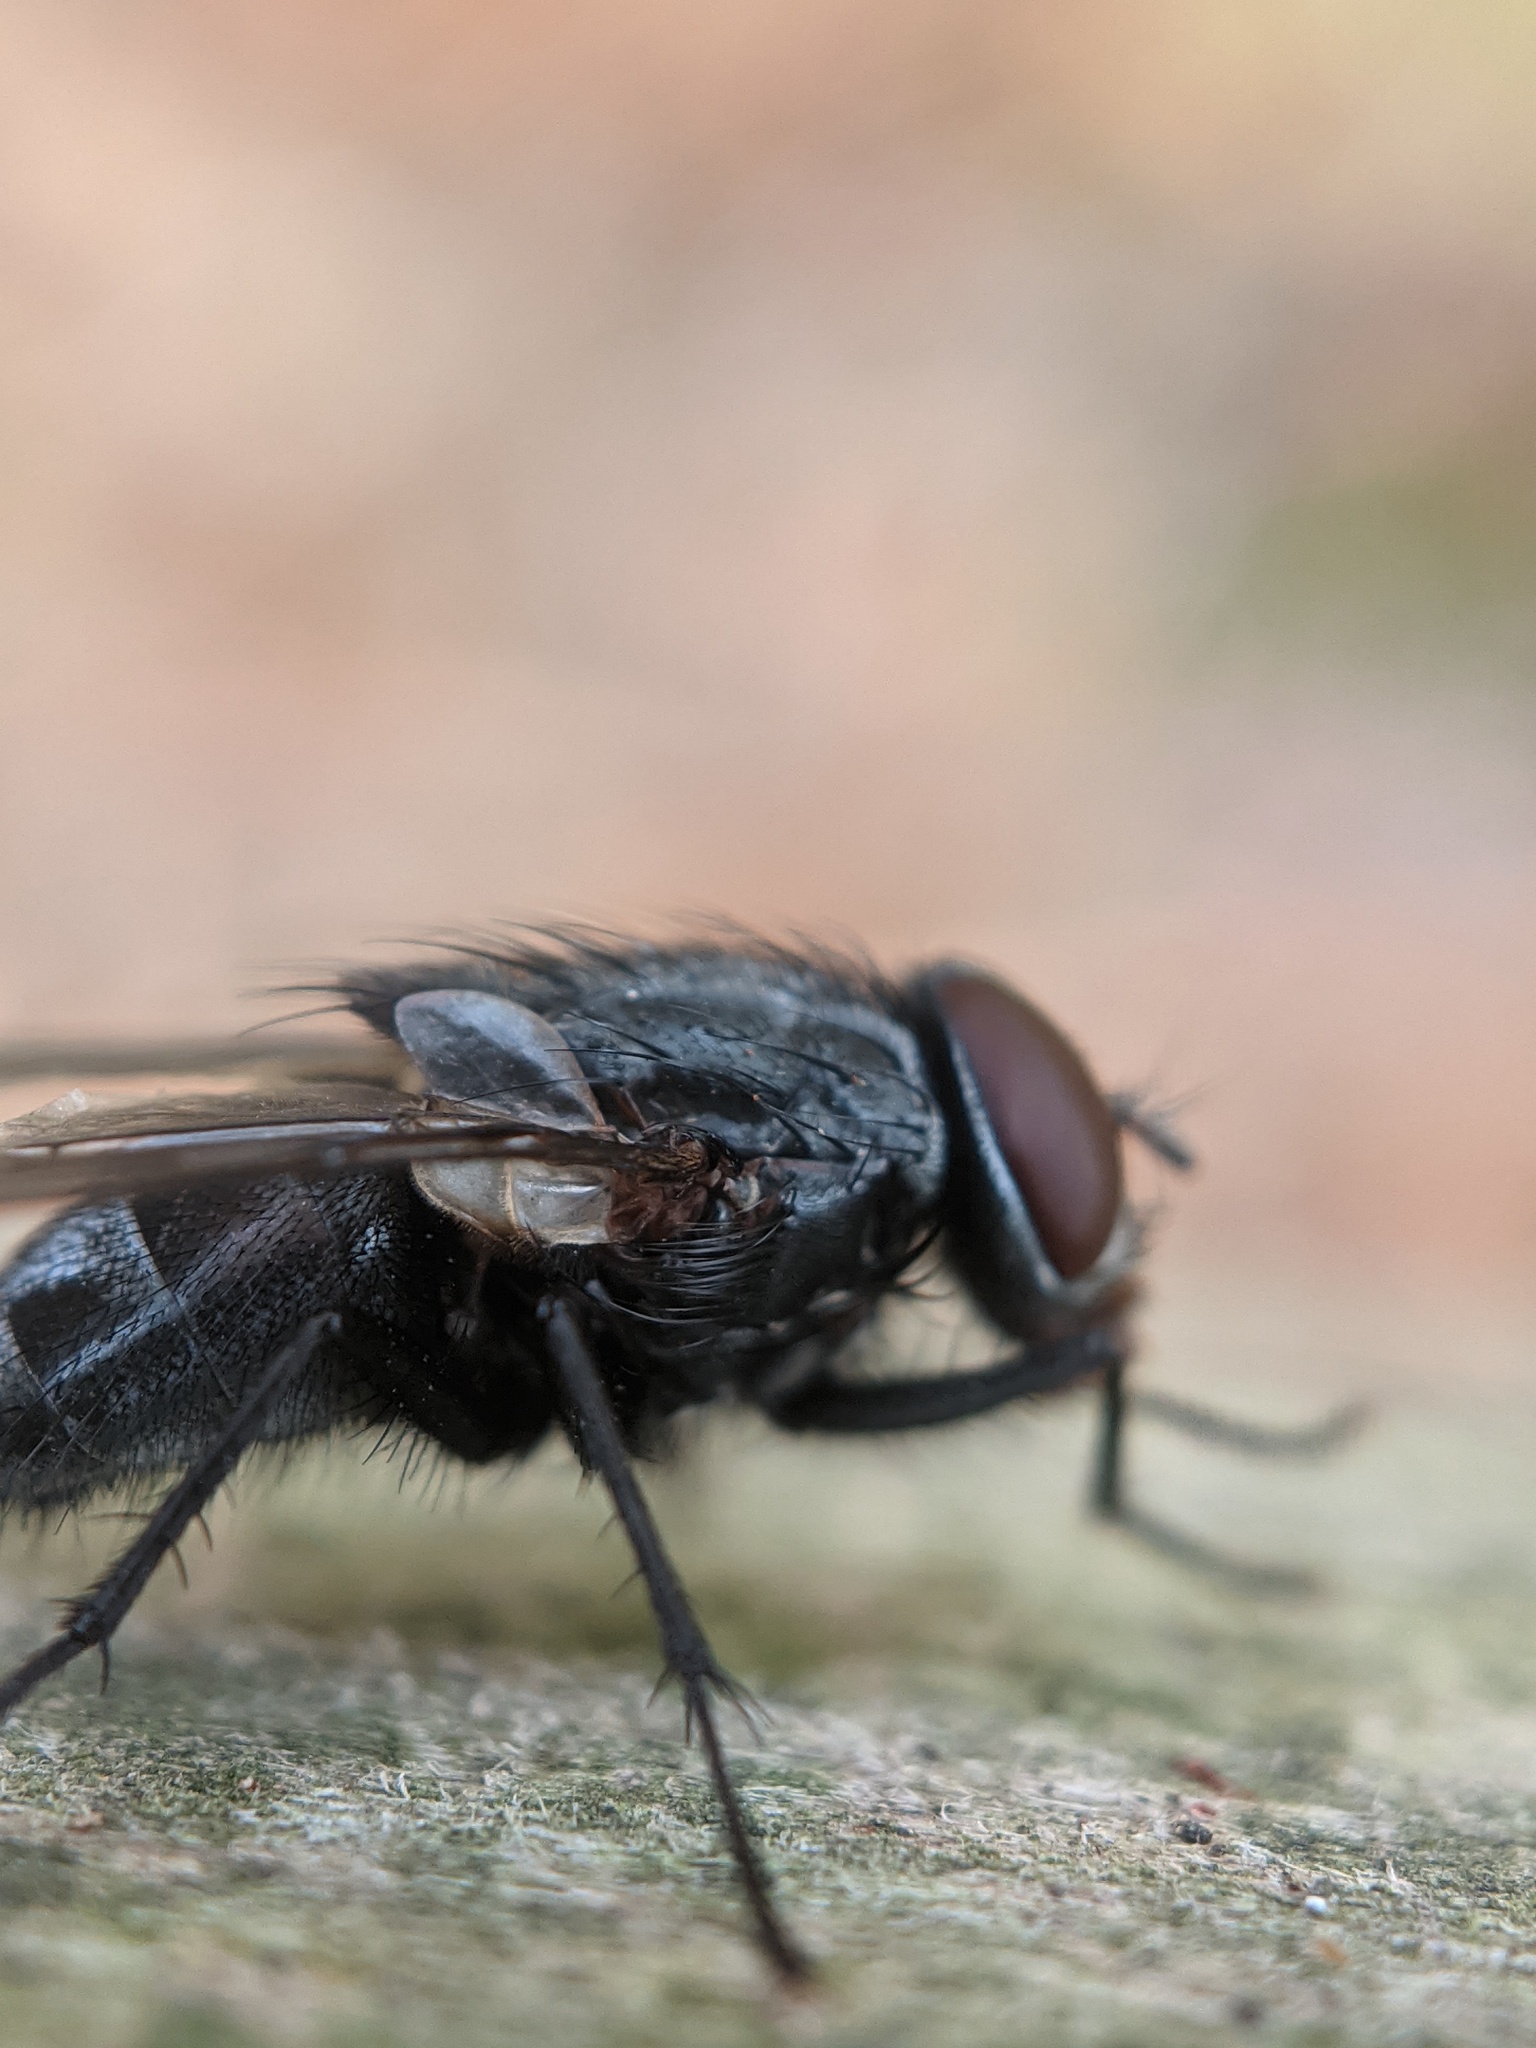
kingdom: Animalia
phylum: Arthropoda
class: Insecta
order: Diptera
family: Muscidae
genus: Muscina
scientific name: Muscina pascuorum
